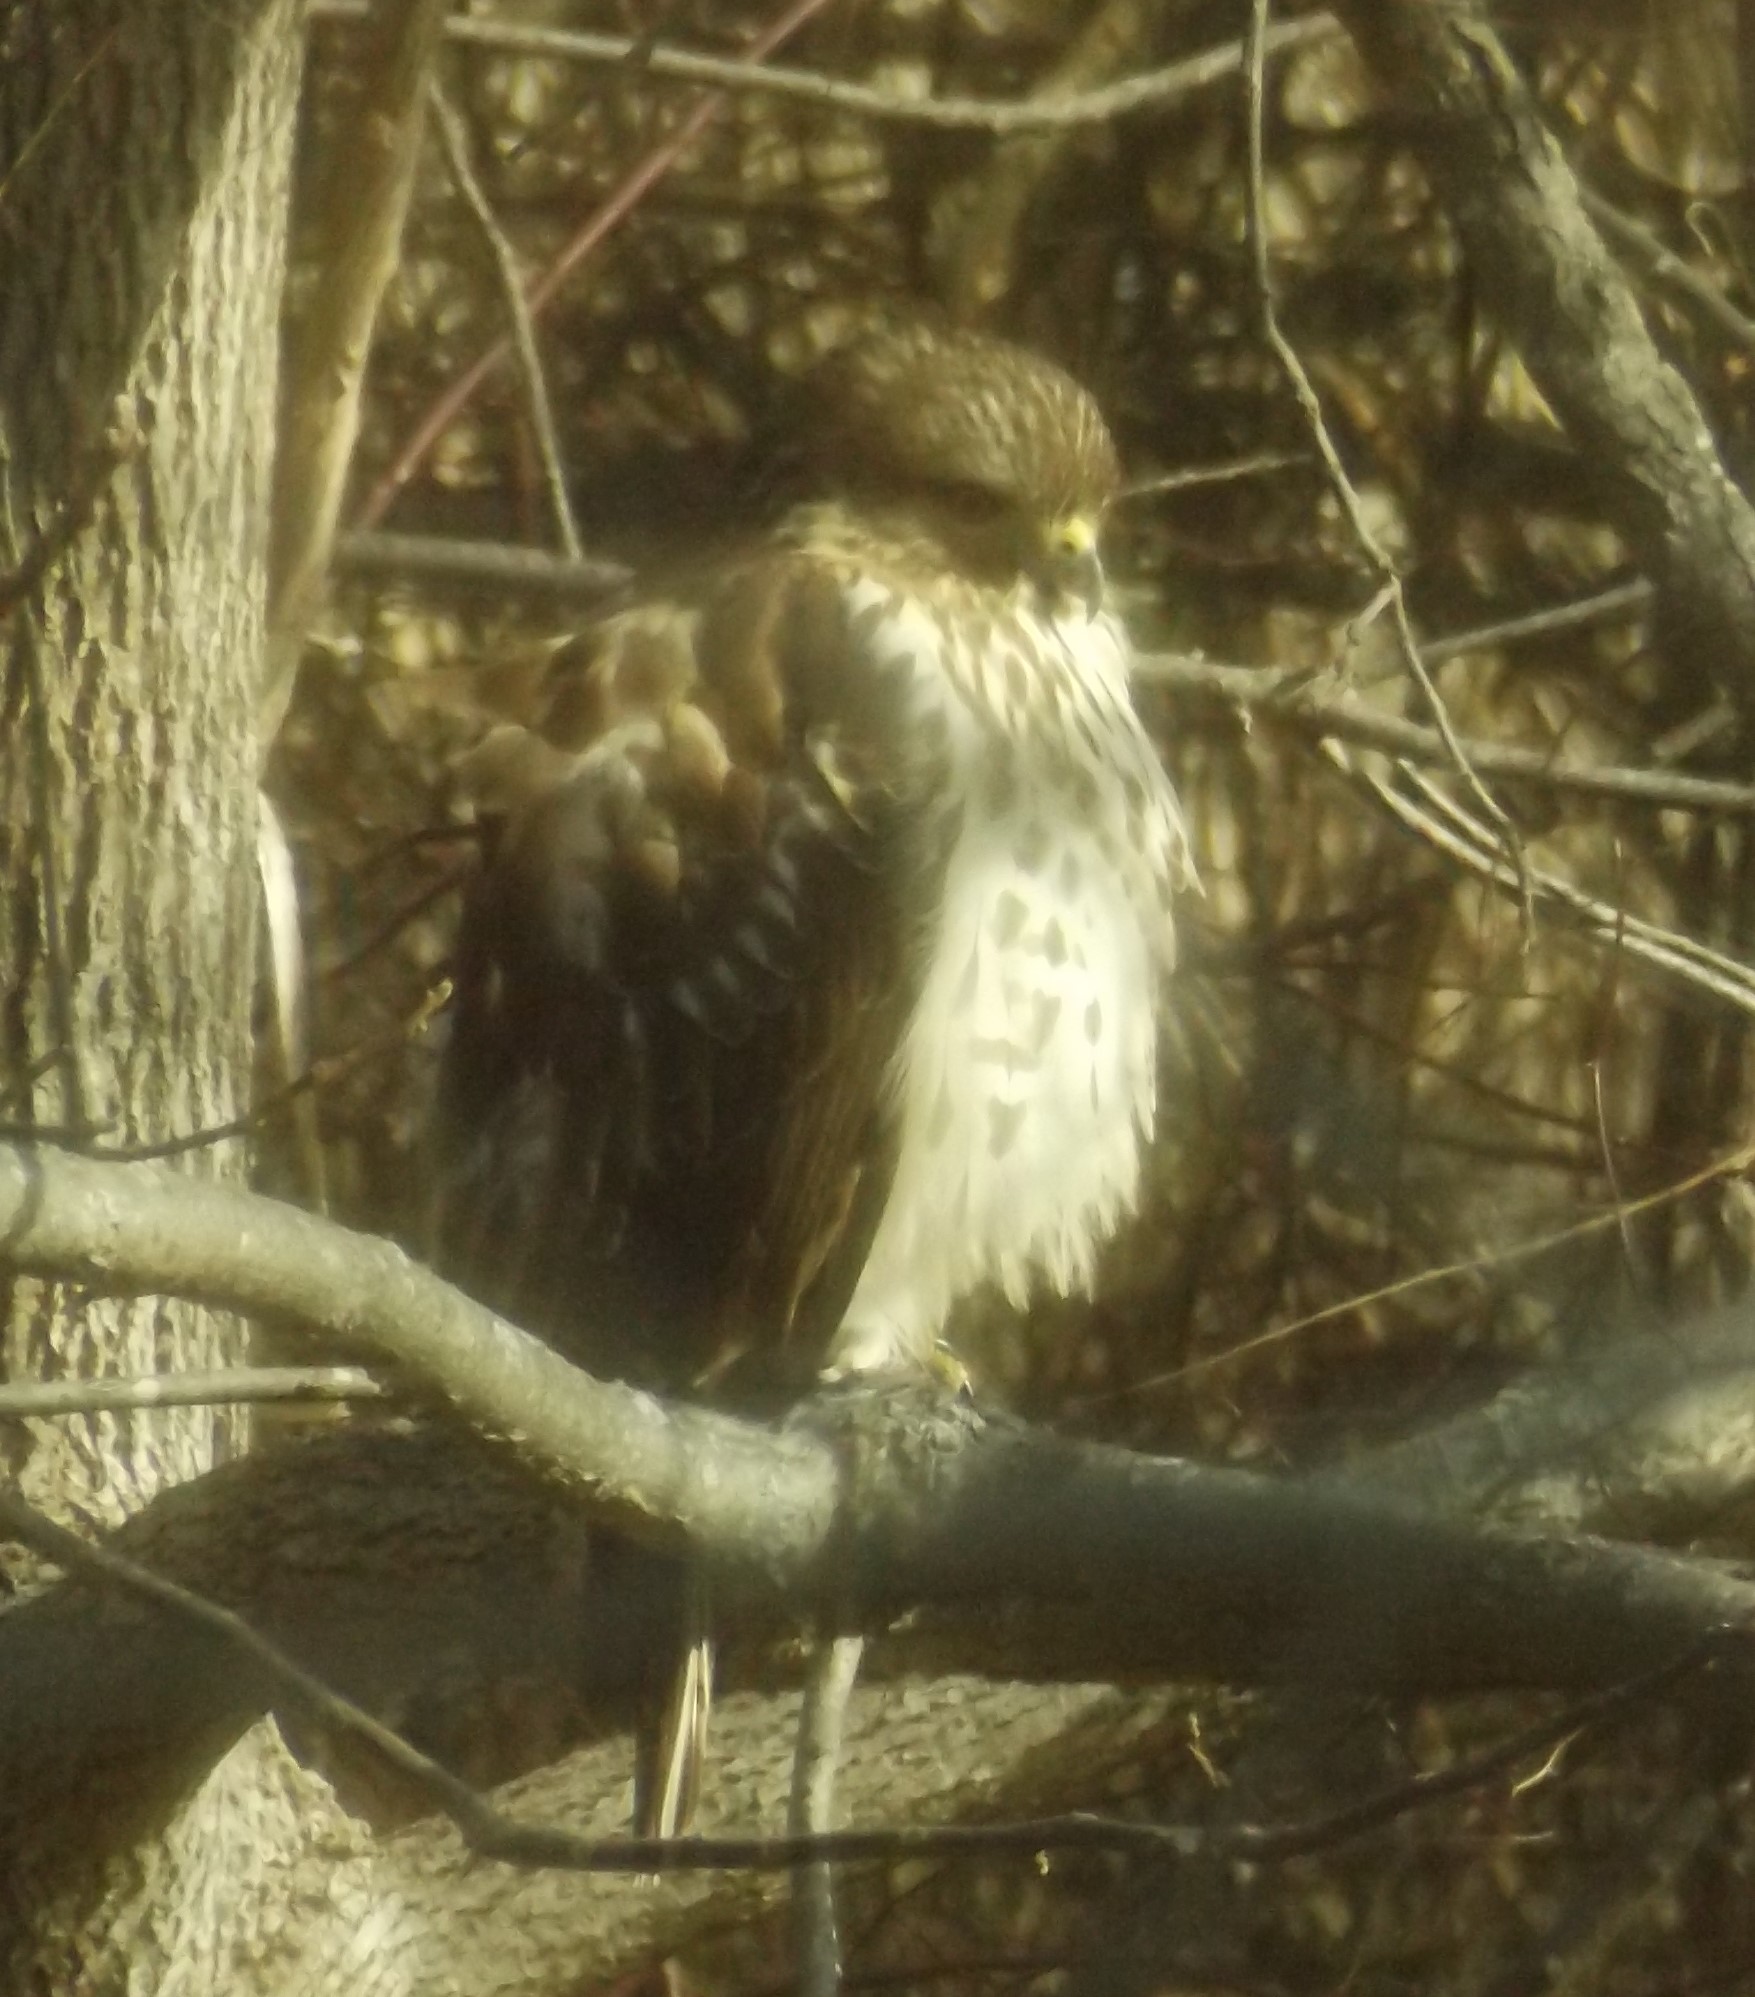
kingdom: Animalia
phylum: Chordata
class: Aves
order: Accipitriformes
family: Accipitridae
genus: Buteo
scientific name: Buteo lineatus
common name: Red-shouldered hawk
